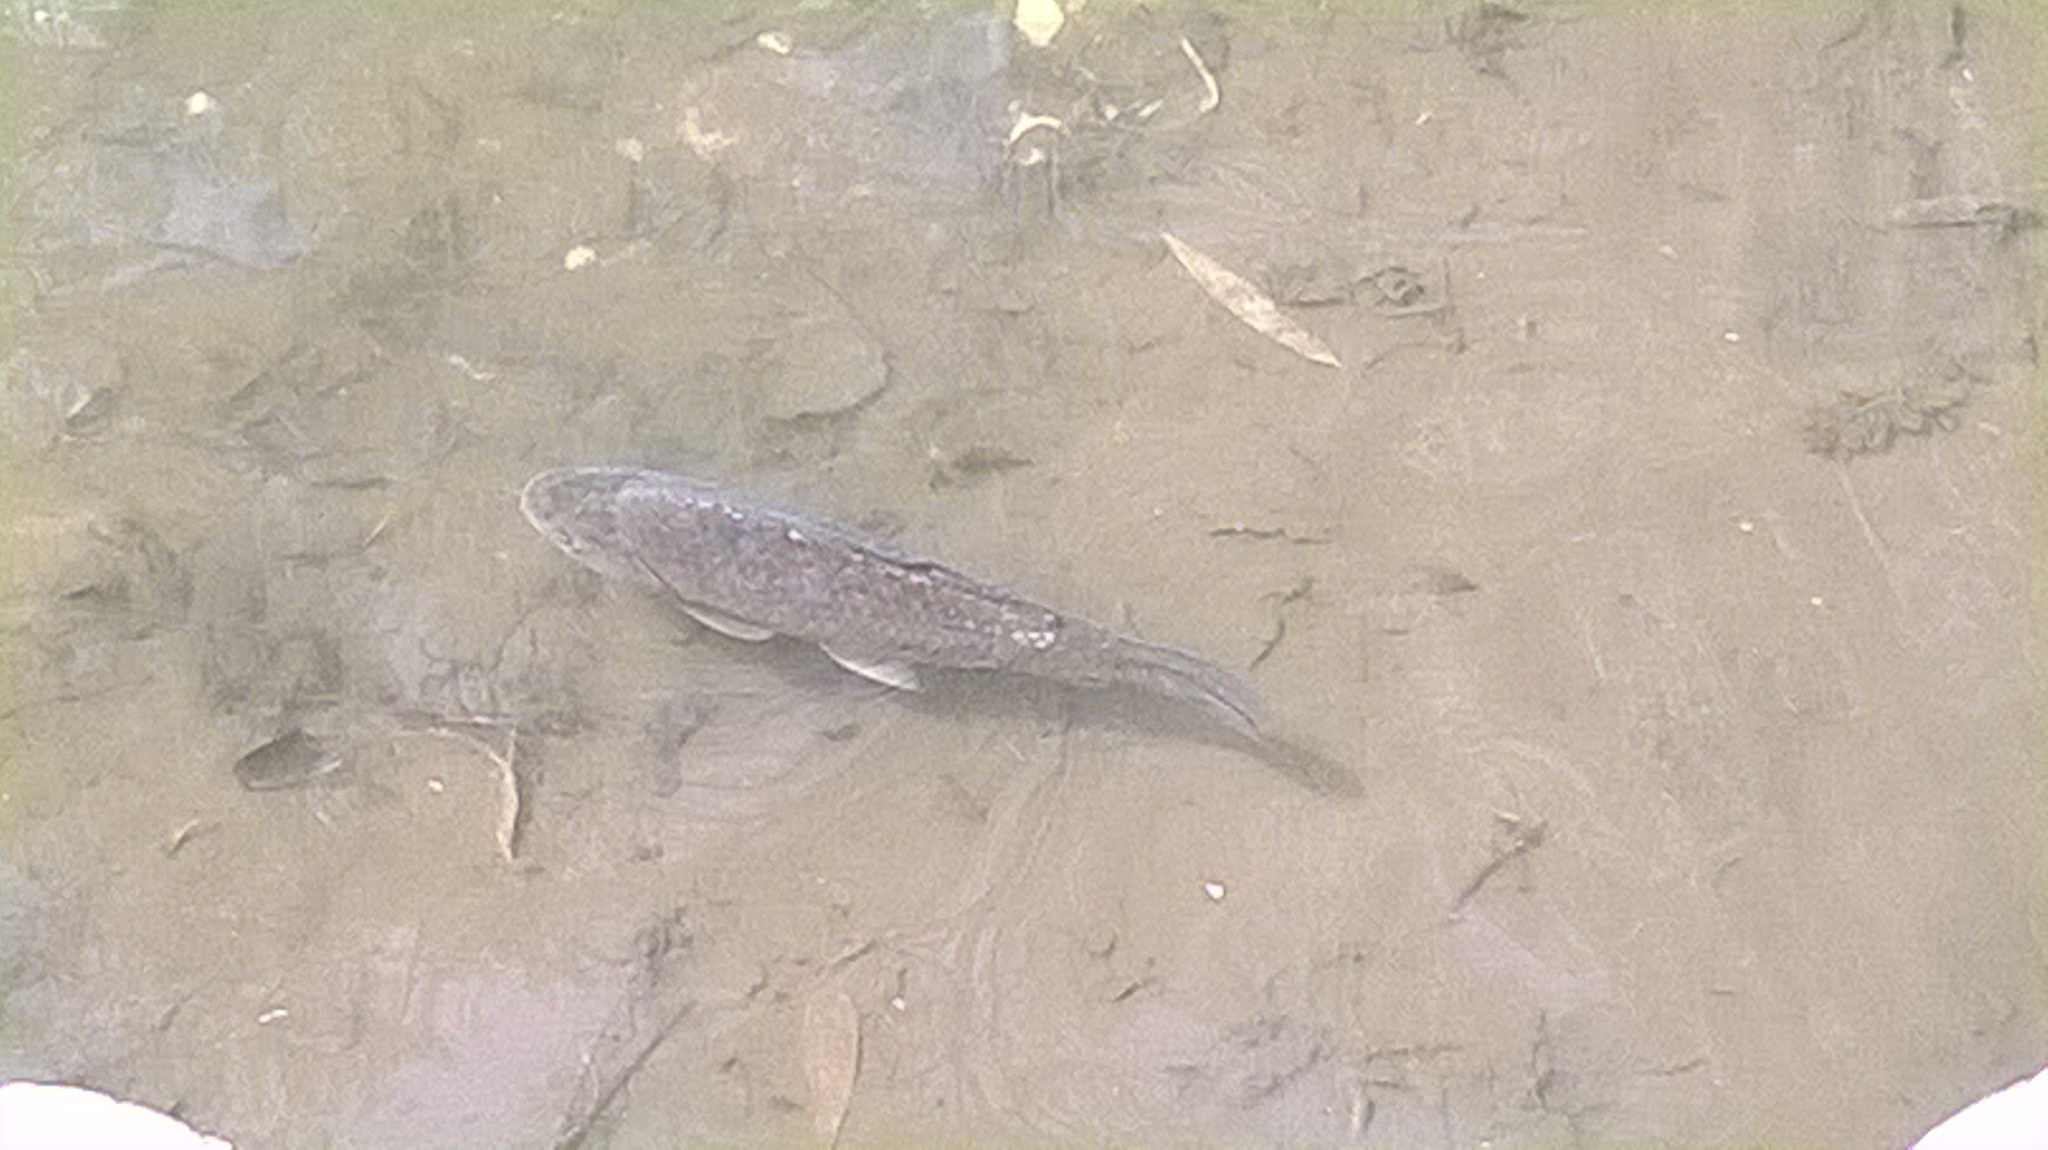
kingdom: Animalia
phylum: Chordata
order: Cypriniformes
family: Cyprinidae
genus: Cyprinus
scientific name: Cyprinus carpio
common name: Common carp
